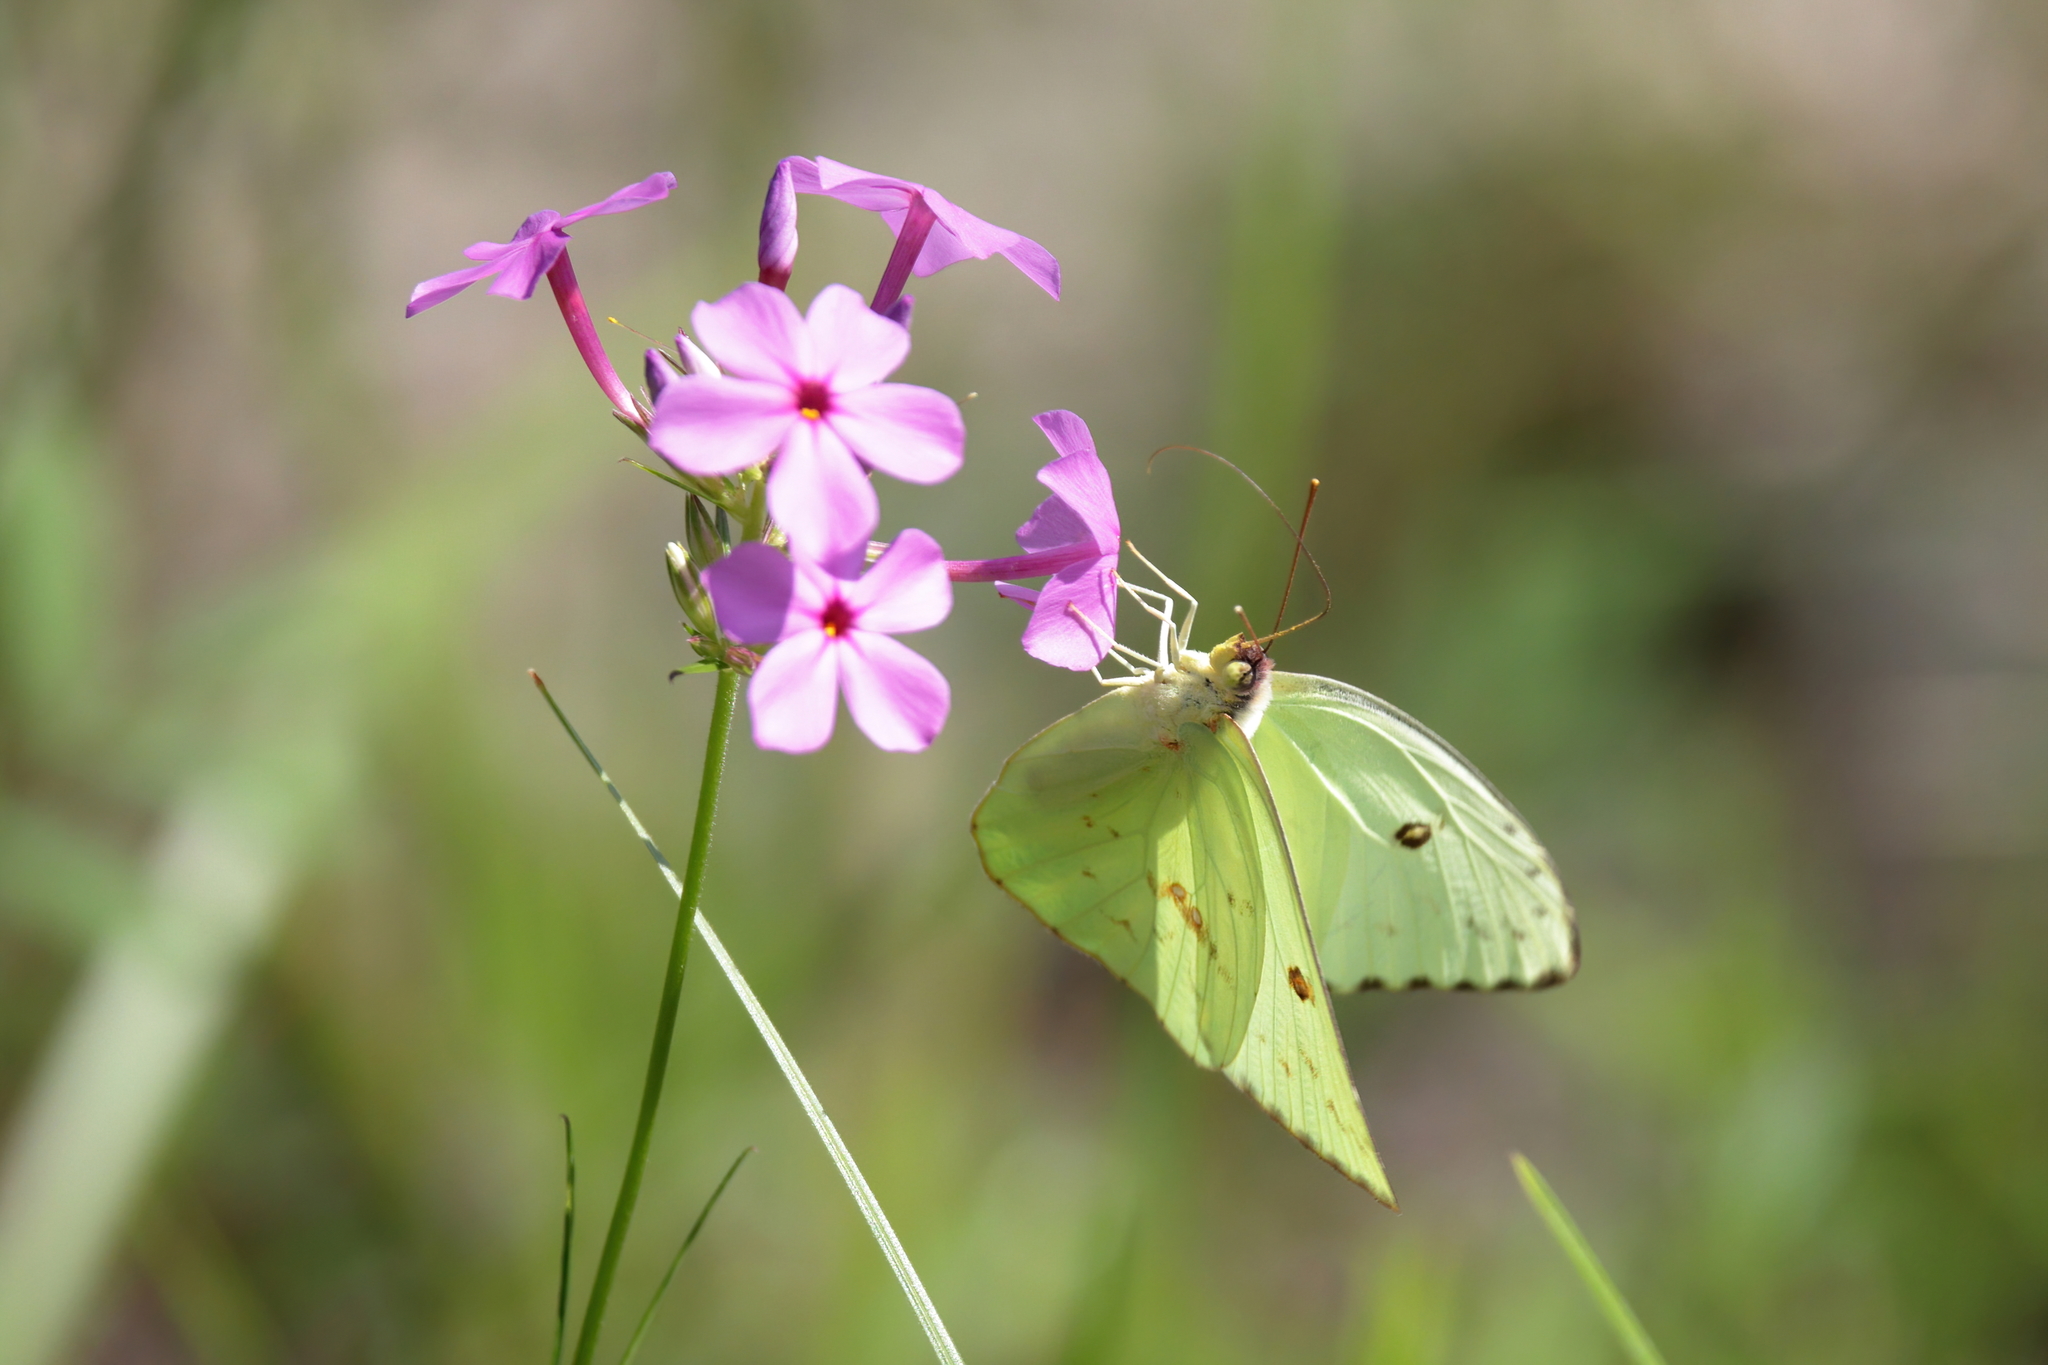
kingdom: Animalia
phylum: Arthropoda
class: Insecta
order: Lepidoptera
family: Pieridae
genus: Phoebis
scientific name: Phoebis sennae
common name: Cloudless sulphur
